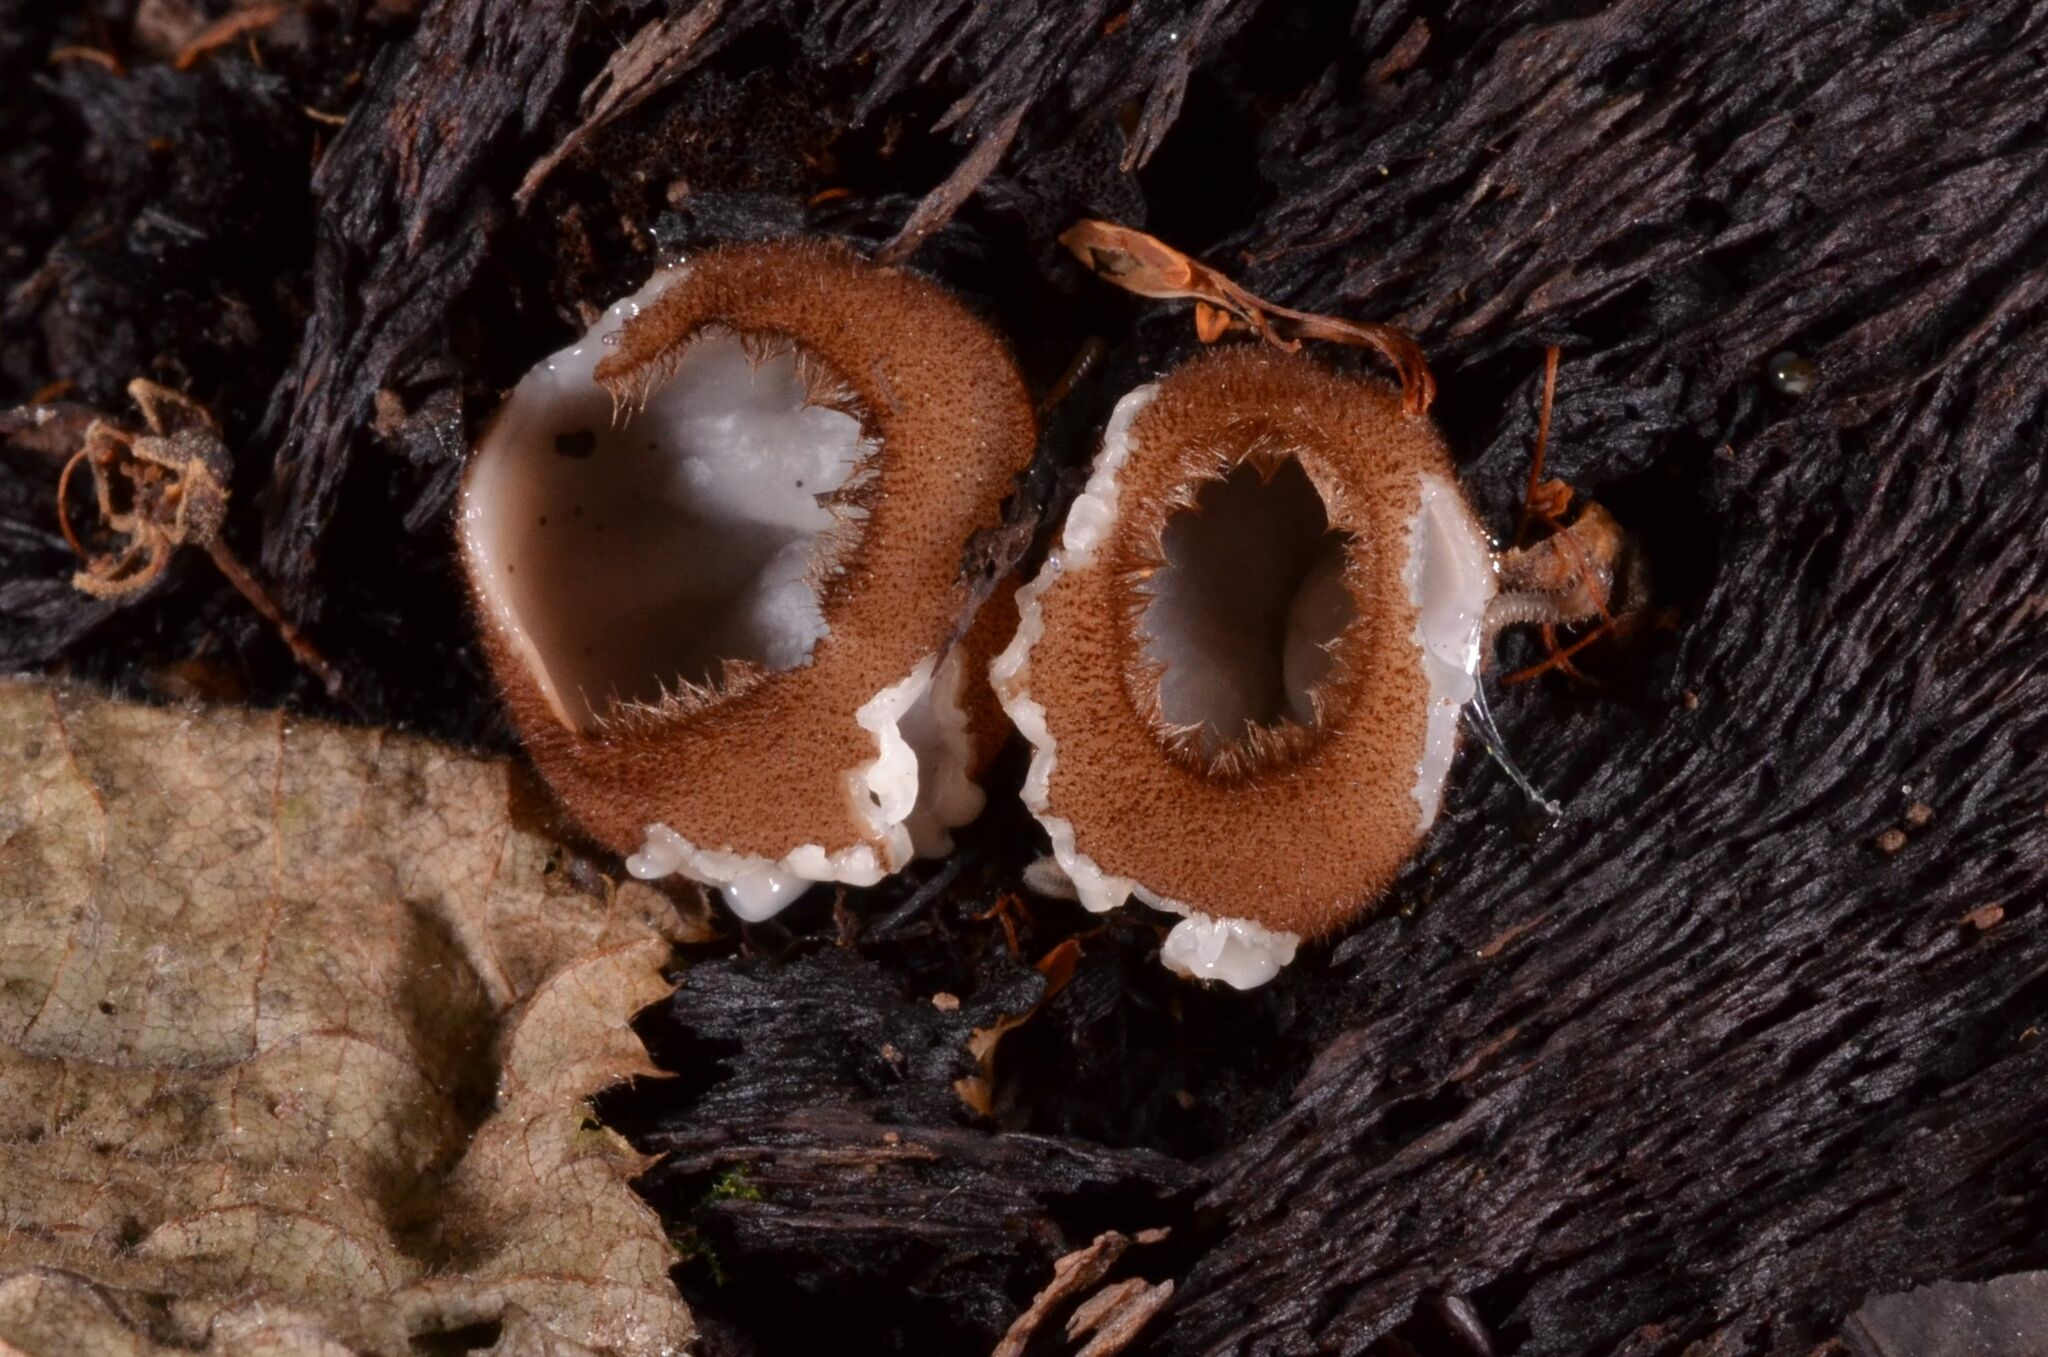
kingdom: Fungi
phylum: Ascomycota
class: Pezizomycetes
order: Pezizales
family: Pyronemataceae
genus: Humaria
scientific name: Humaria hemisphaerica
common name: Glazed cup
